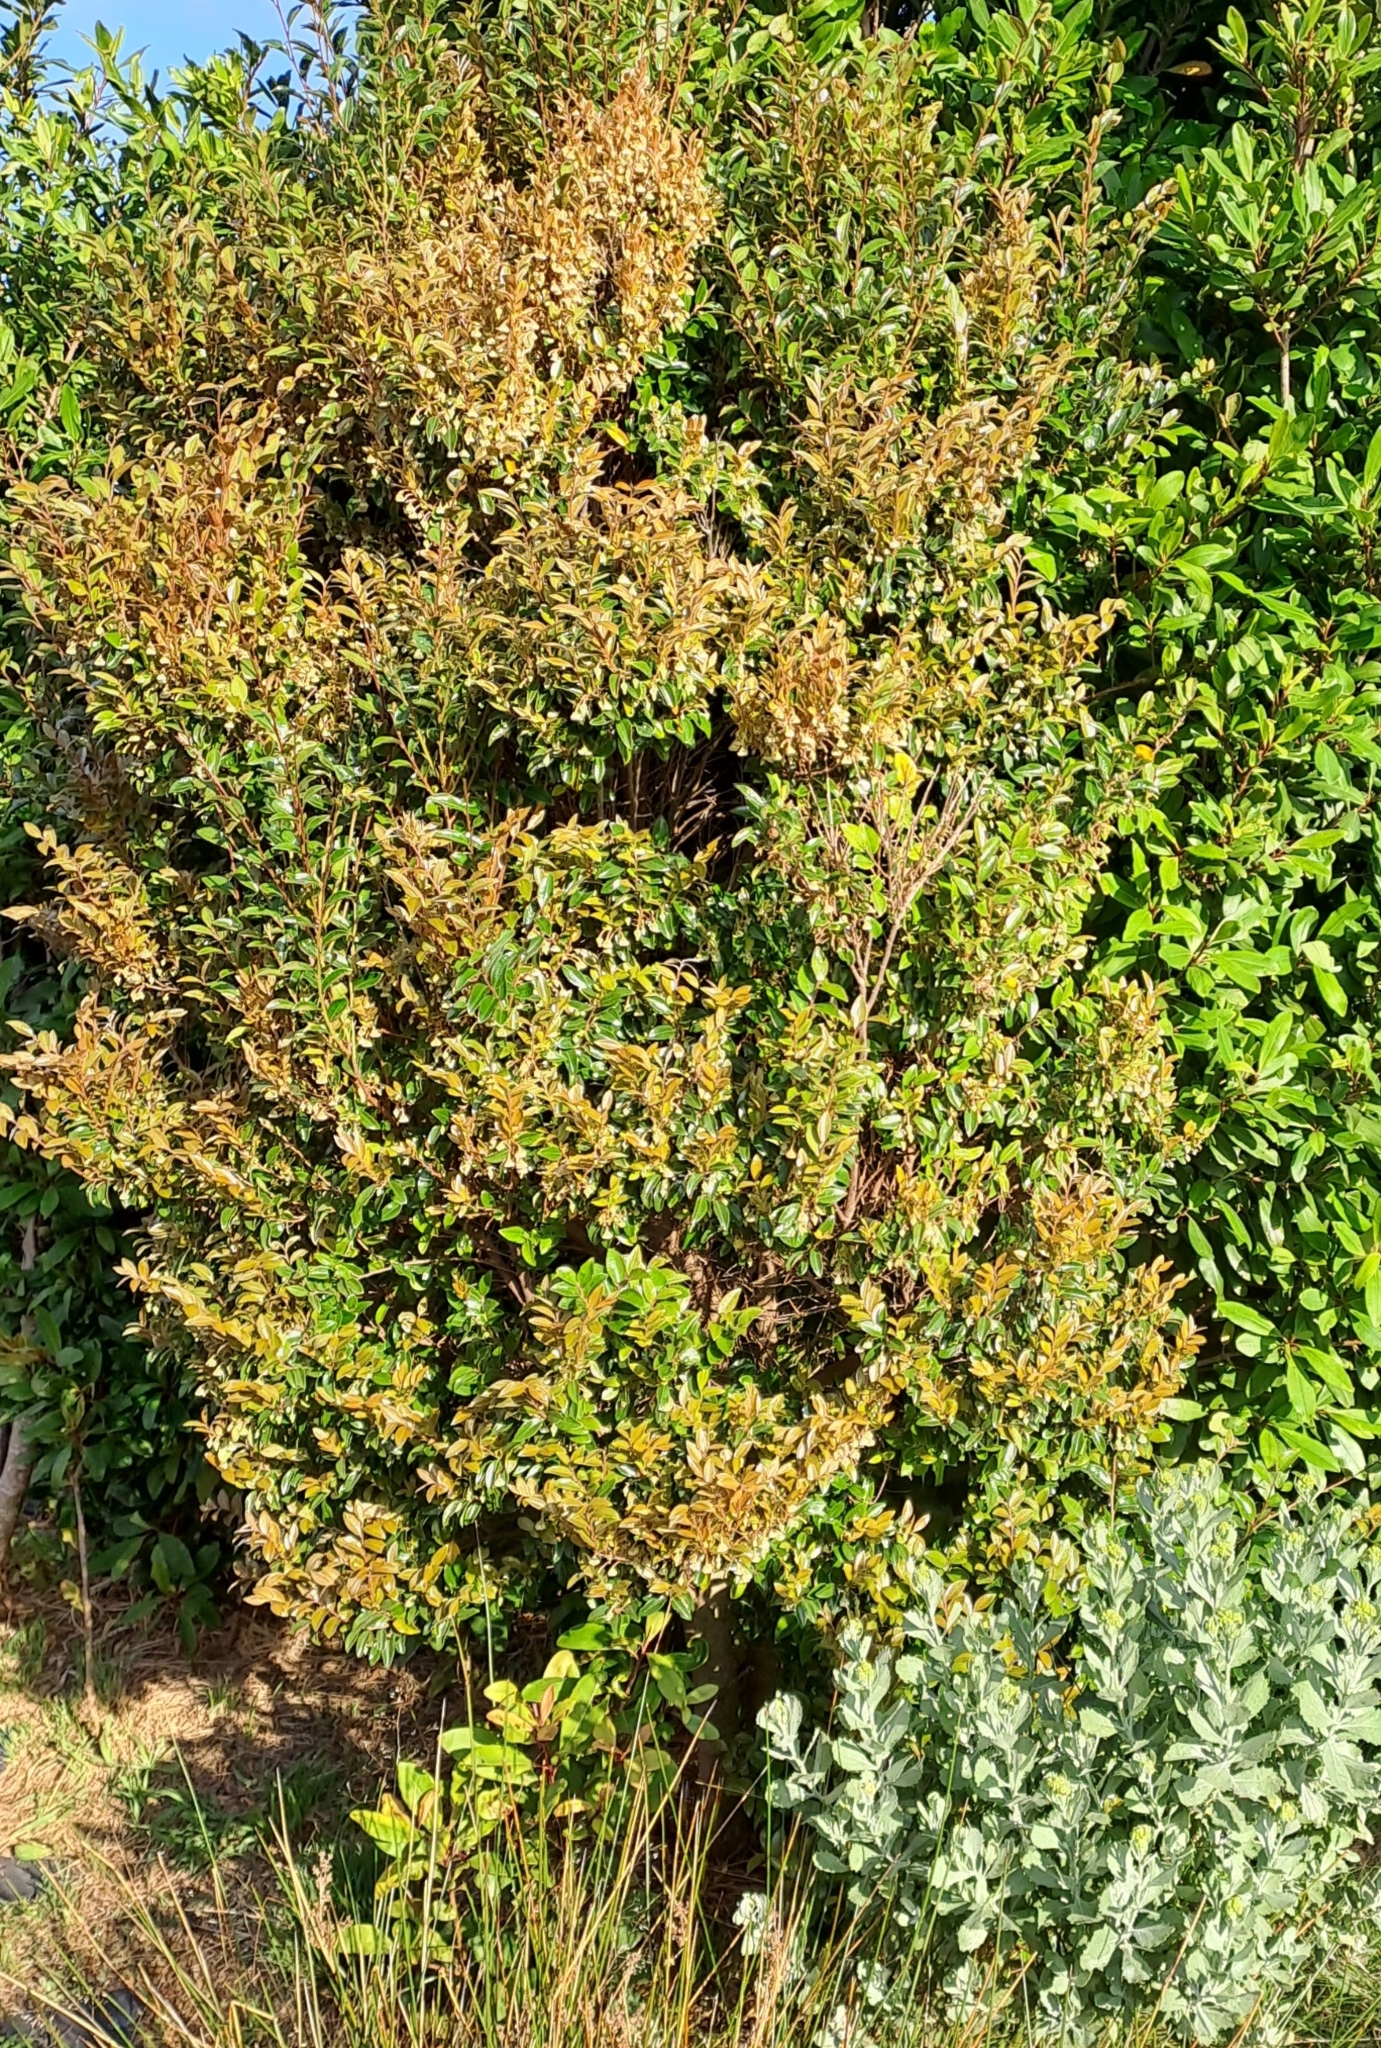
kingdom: Plantae
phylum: Tracheophyta
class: Magnoliopsida
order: Ericales
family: Ebenaceae
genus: Diospyros
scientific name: Diospyros whyteana
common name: Bladder-nut
